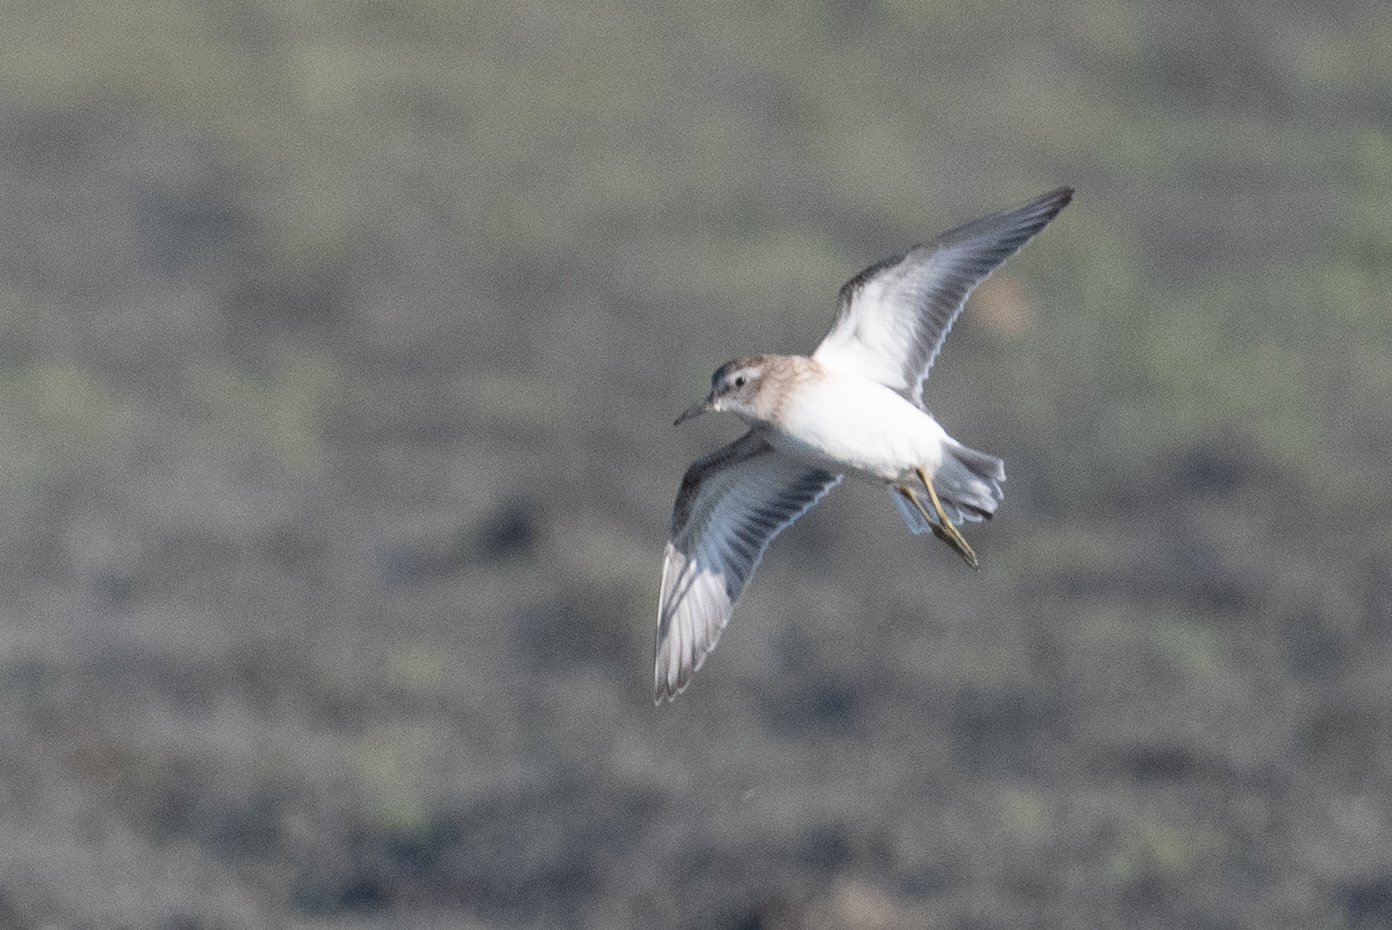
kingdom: Animalia
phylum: Chordata
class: Aves
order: Charadriiformes
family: Scolopacidae
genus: Calidris
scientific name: Calidris minutilla
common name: Least sandpiper
